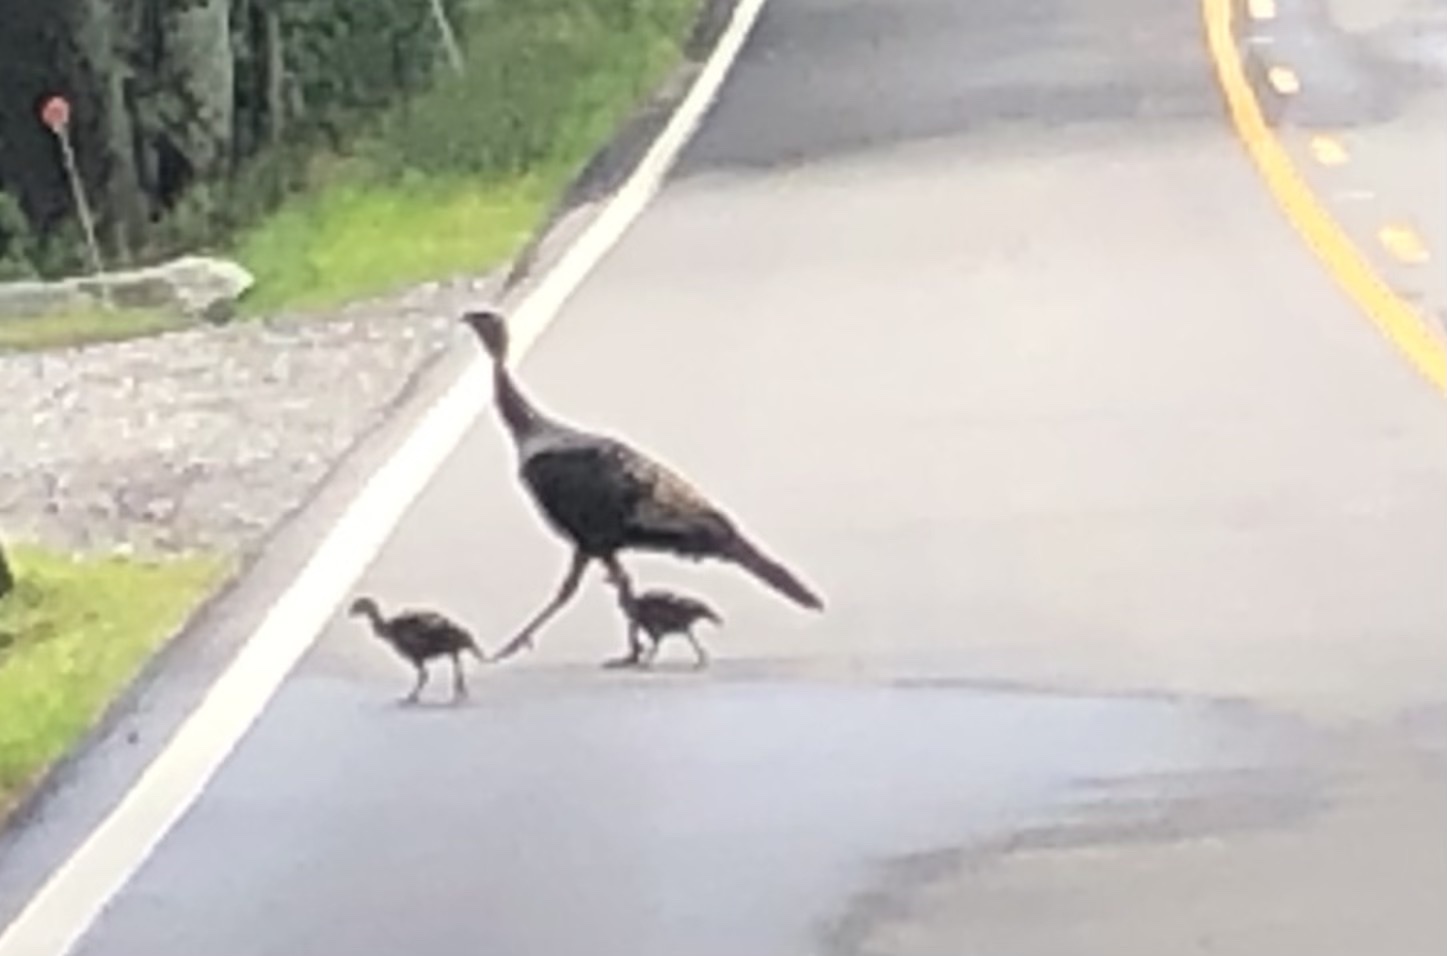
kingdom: Animalia
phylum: Chordata
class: Aves
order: Galliformes
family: Phasianidae
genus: Meleagris
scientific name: Meleagris gallopavo
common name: Wild turkey
